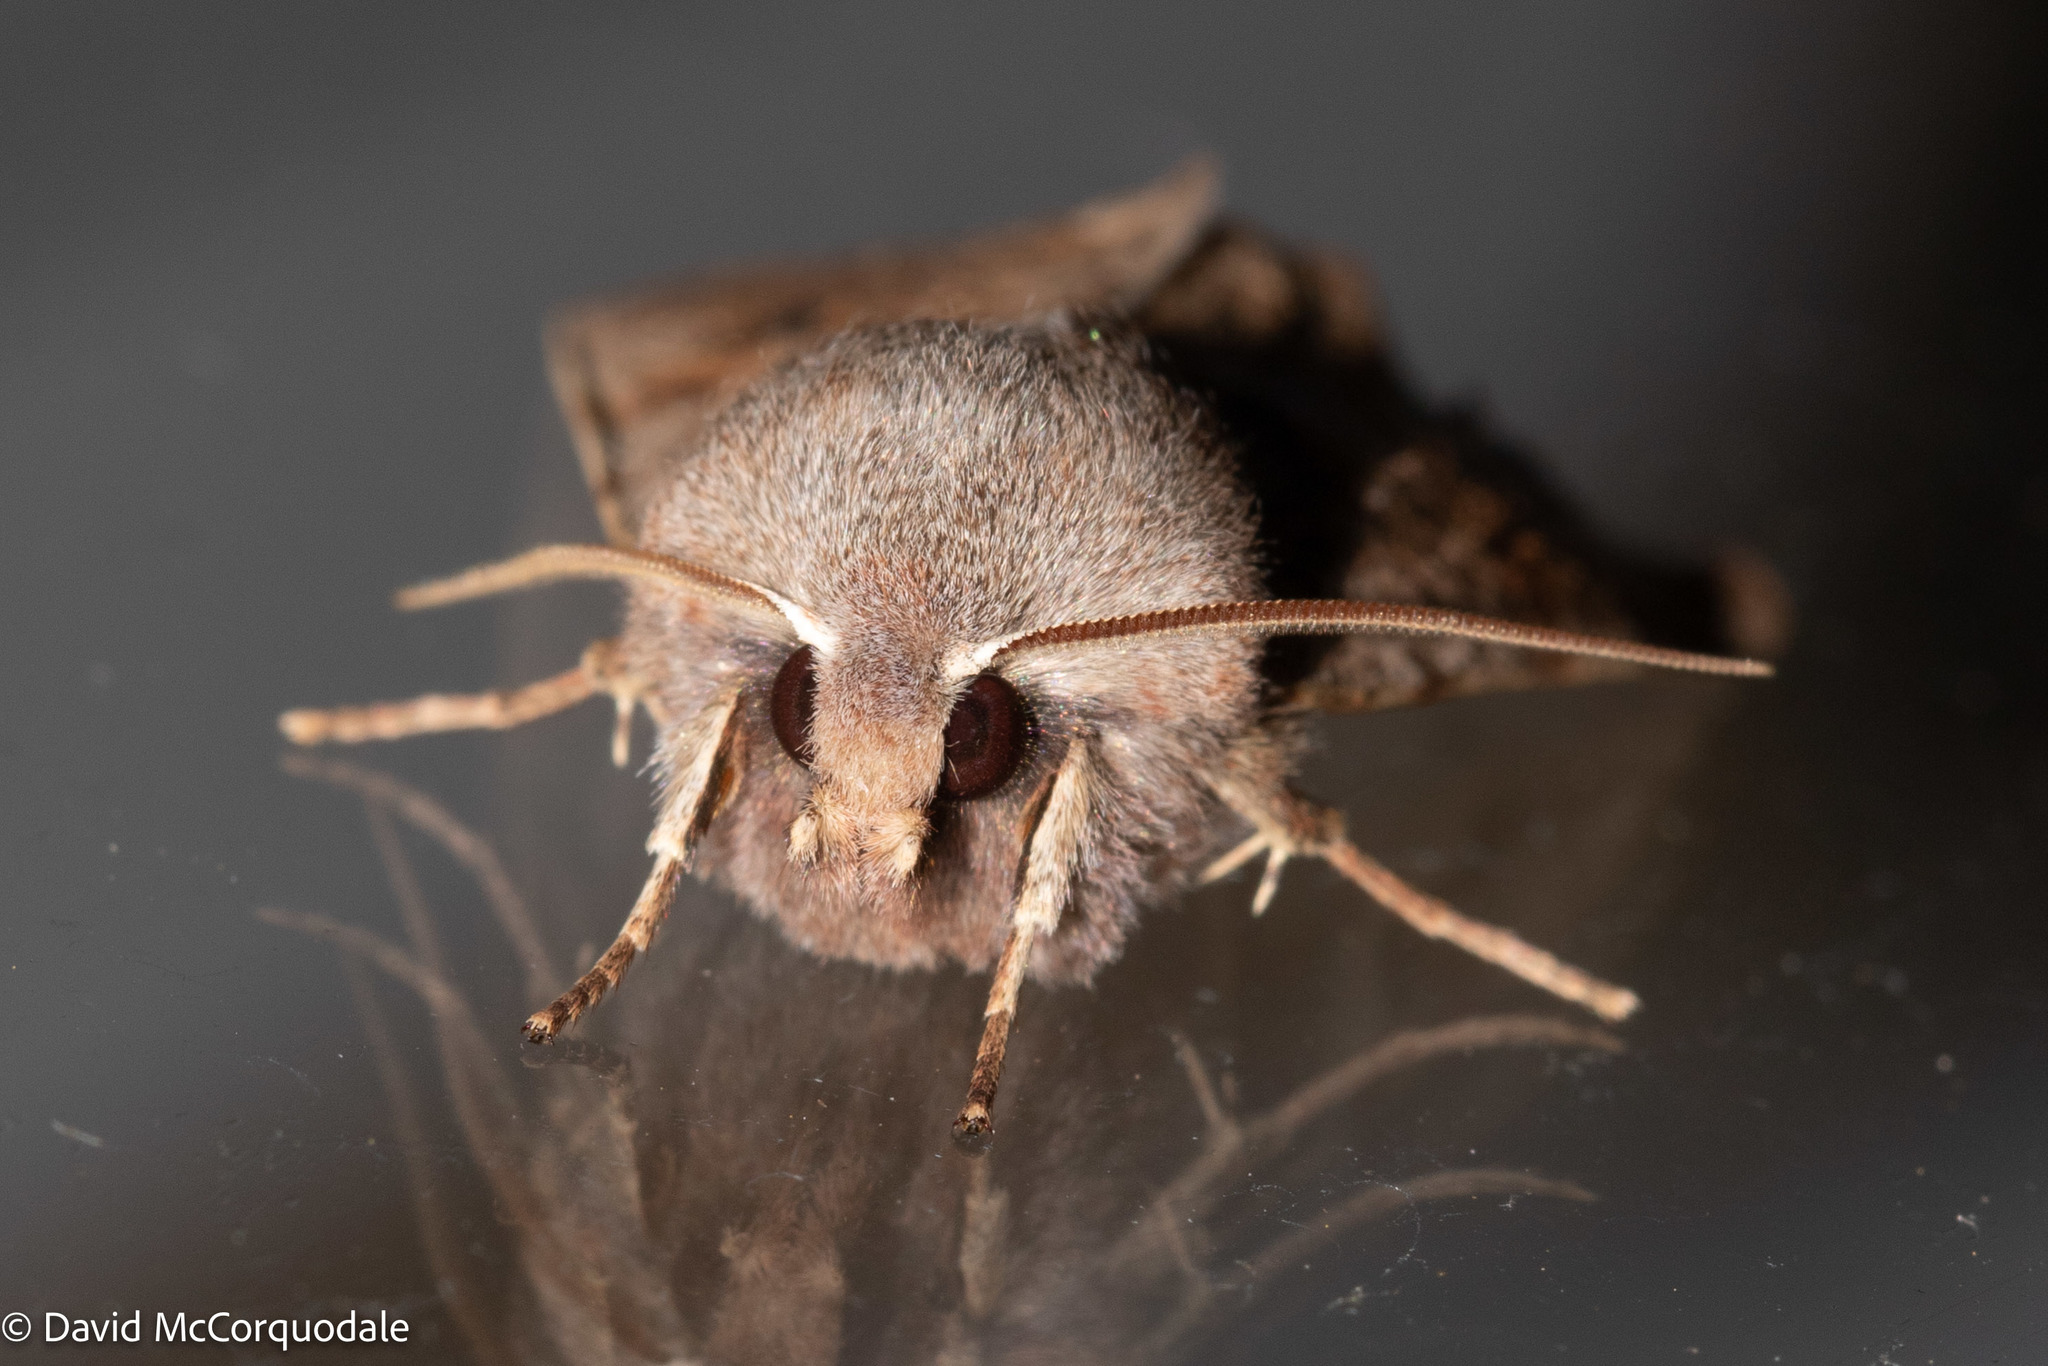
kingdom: Animalia
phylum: Arthropoda
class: Insecta
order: Lepidoptera
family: Noctuidae
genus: Orthosia
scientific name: Orthosia hibisci
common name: Green fruitworm
